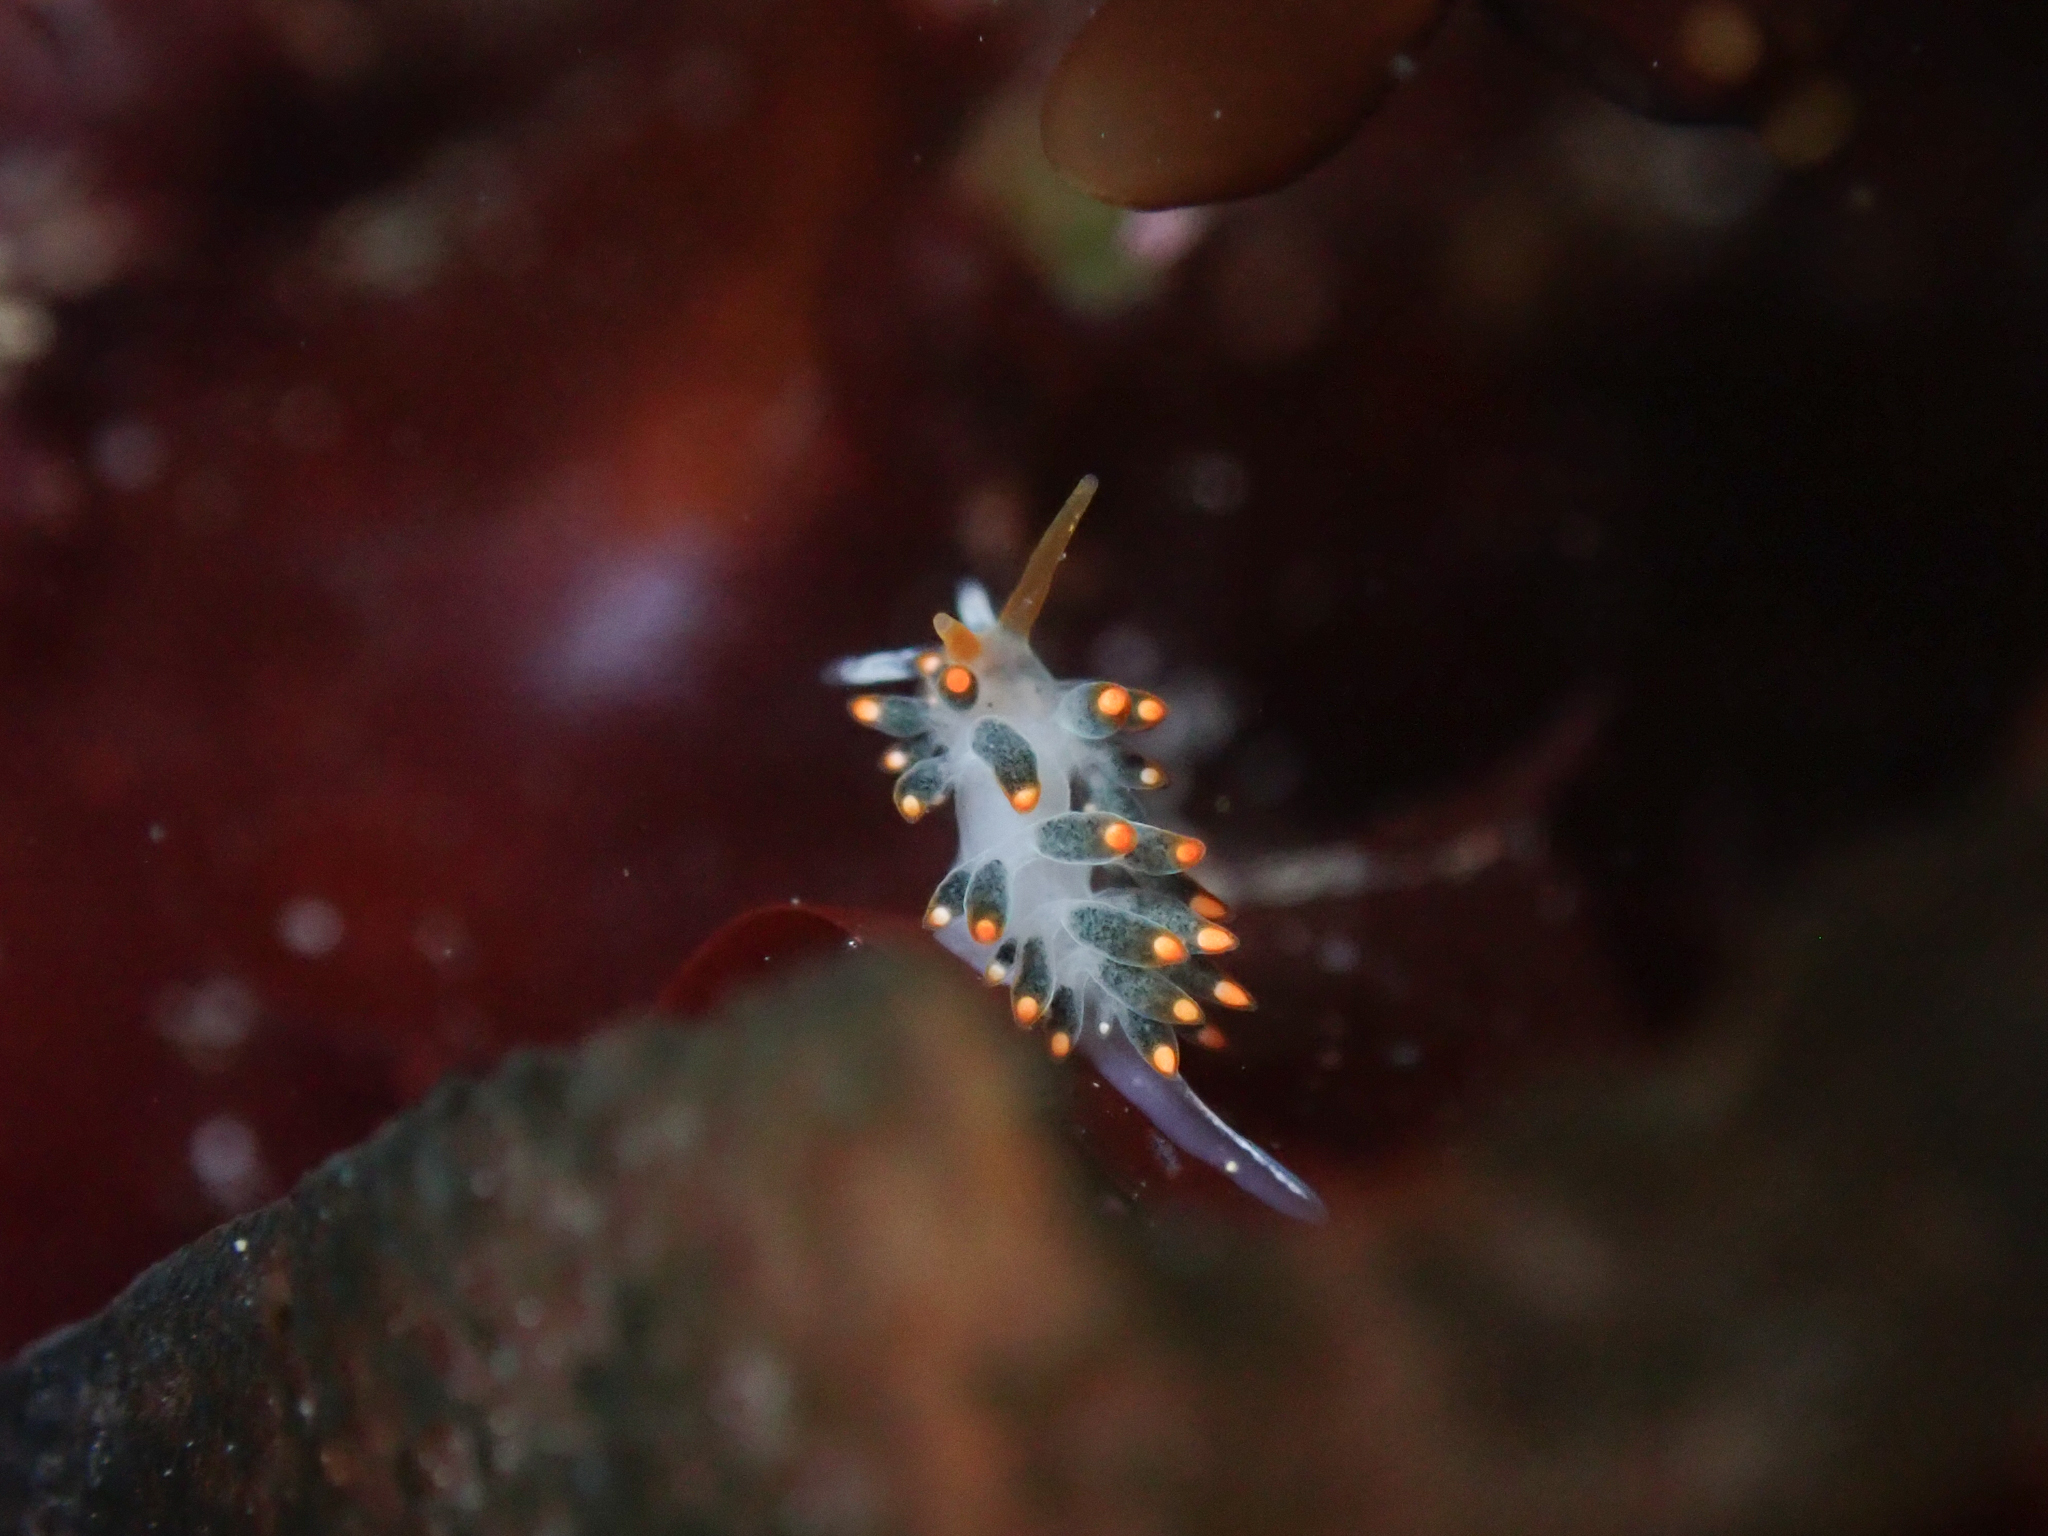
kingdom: Animalia
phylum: Mollusca
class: Gastropoda
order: Nudibranchia
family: Trinchesiidae
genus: Diaphoreolis
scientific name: Diaphoreolis lagunae
